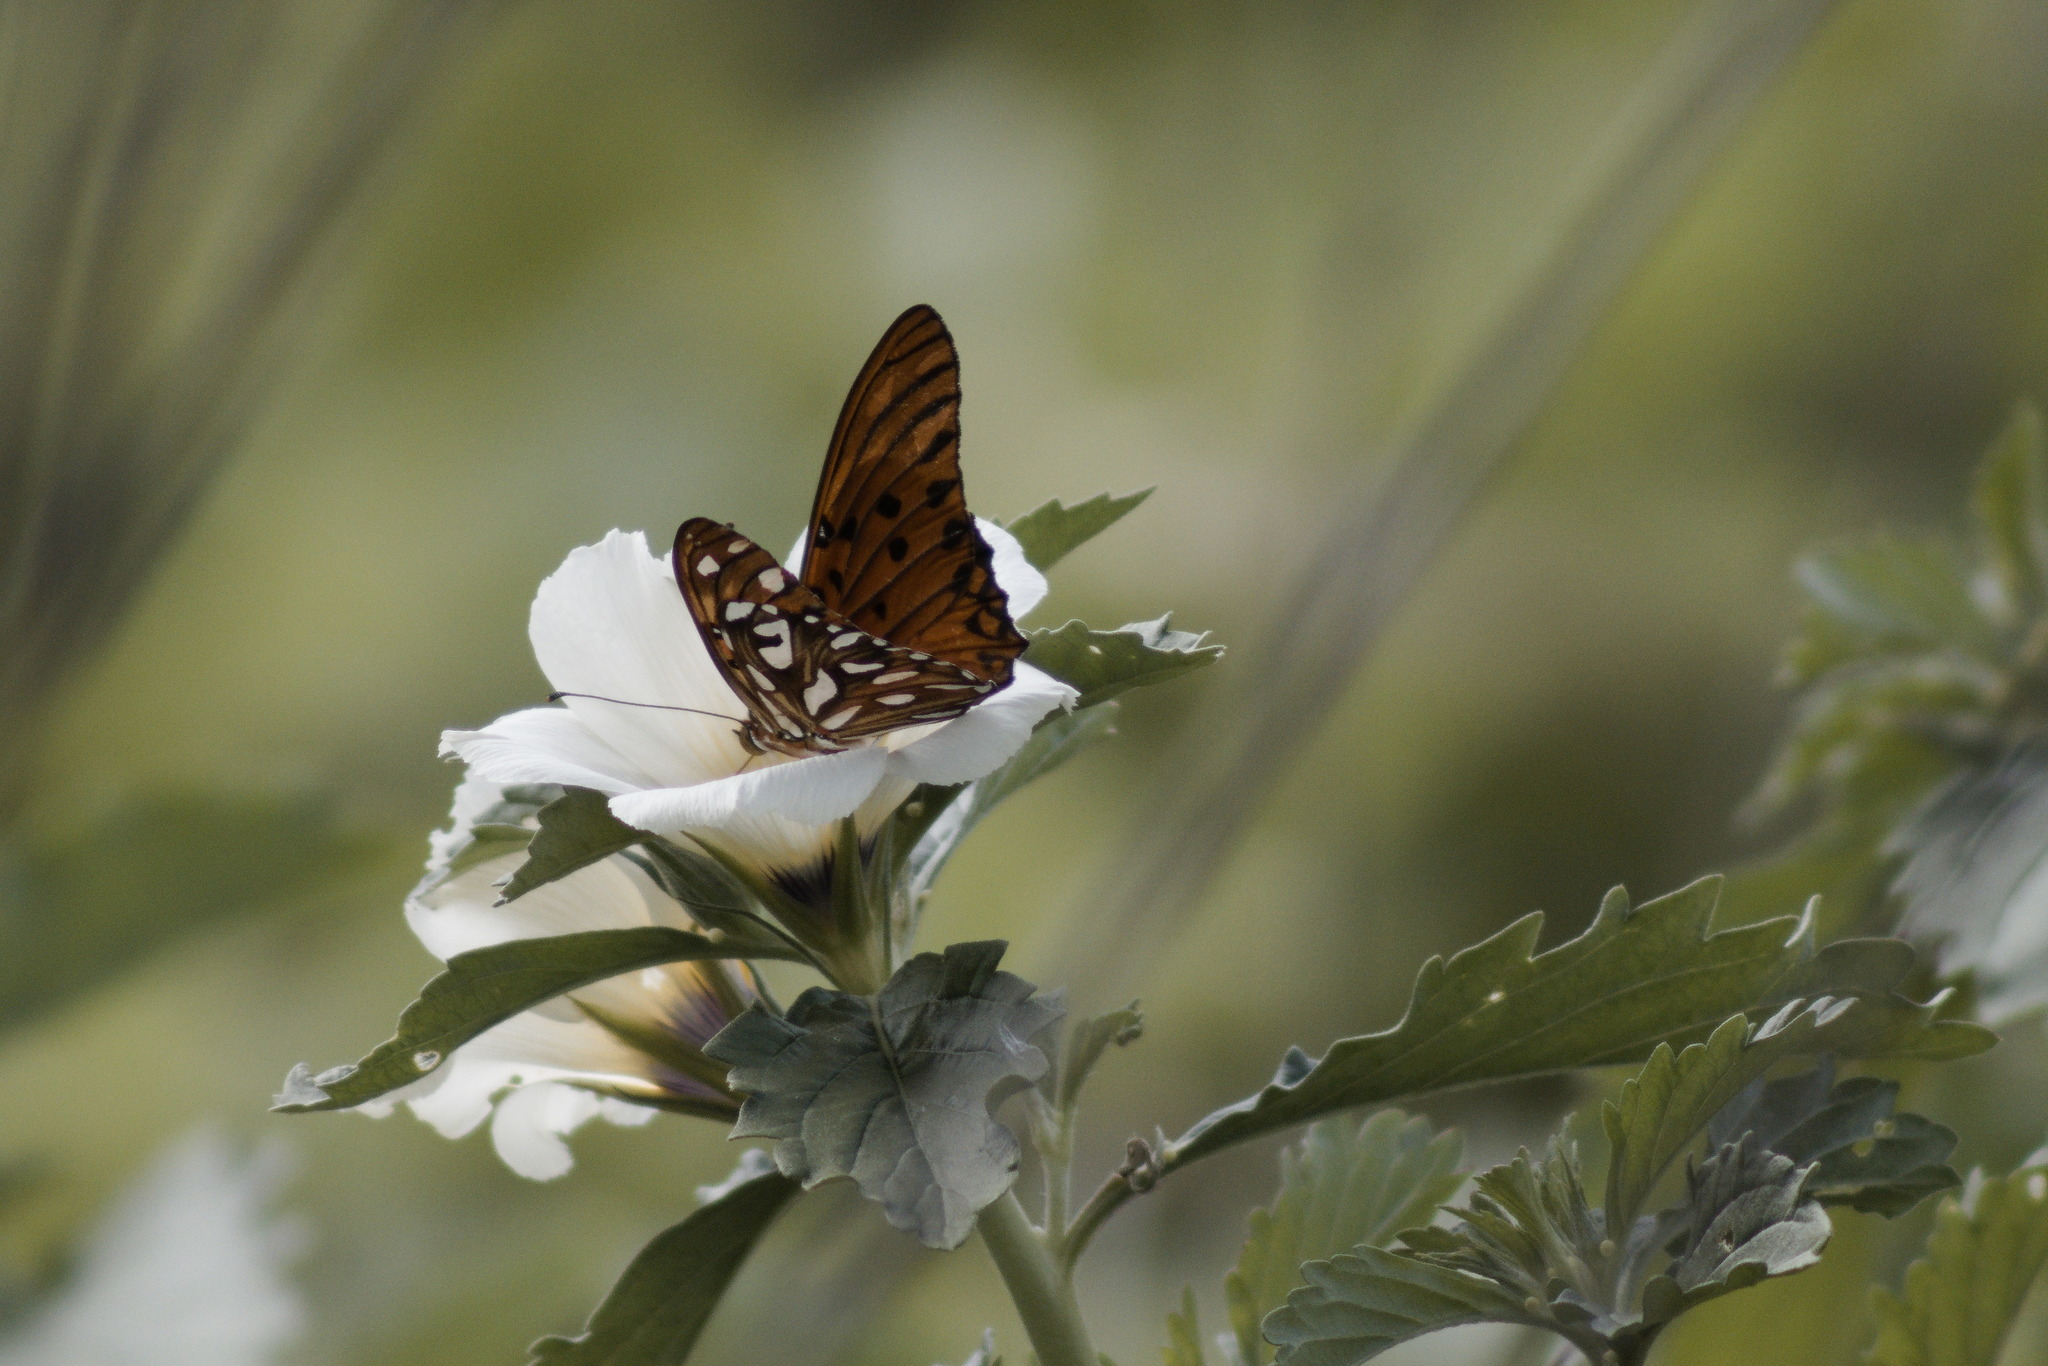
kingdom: Animalia
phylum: Arthropoda
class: Insecta
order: Lepidoptera
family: Nymphalidae
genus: Dione
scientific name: Dione vanillae
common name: Gulf fritillary
